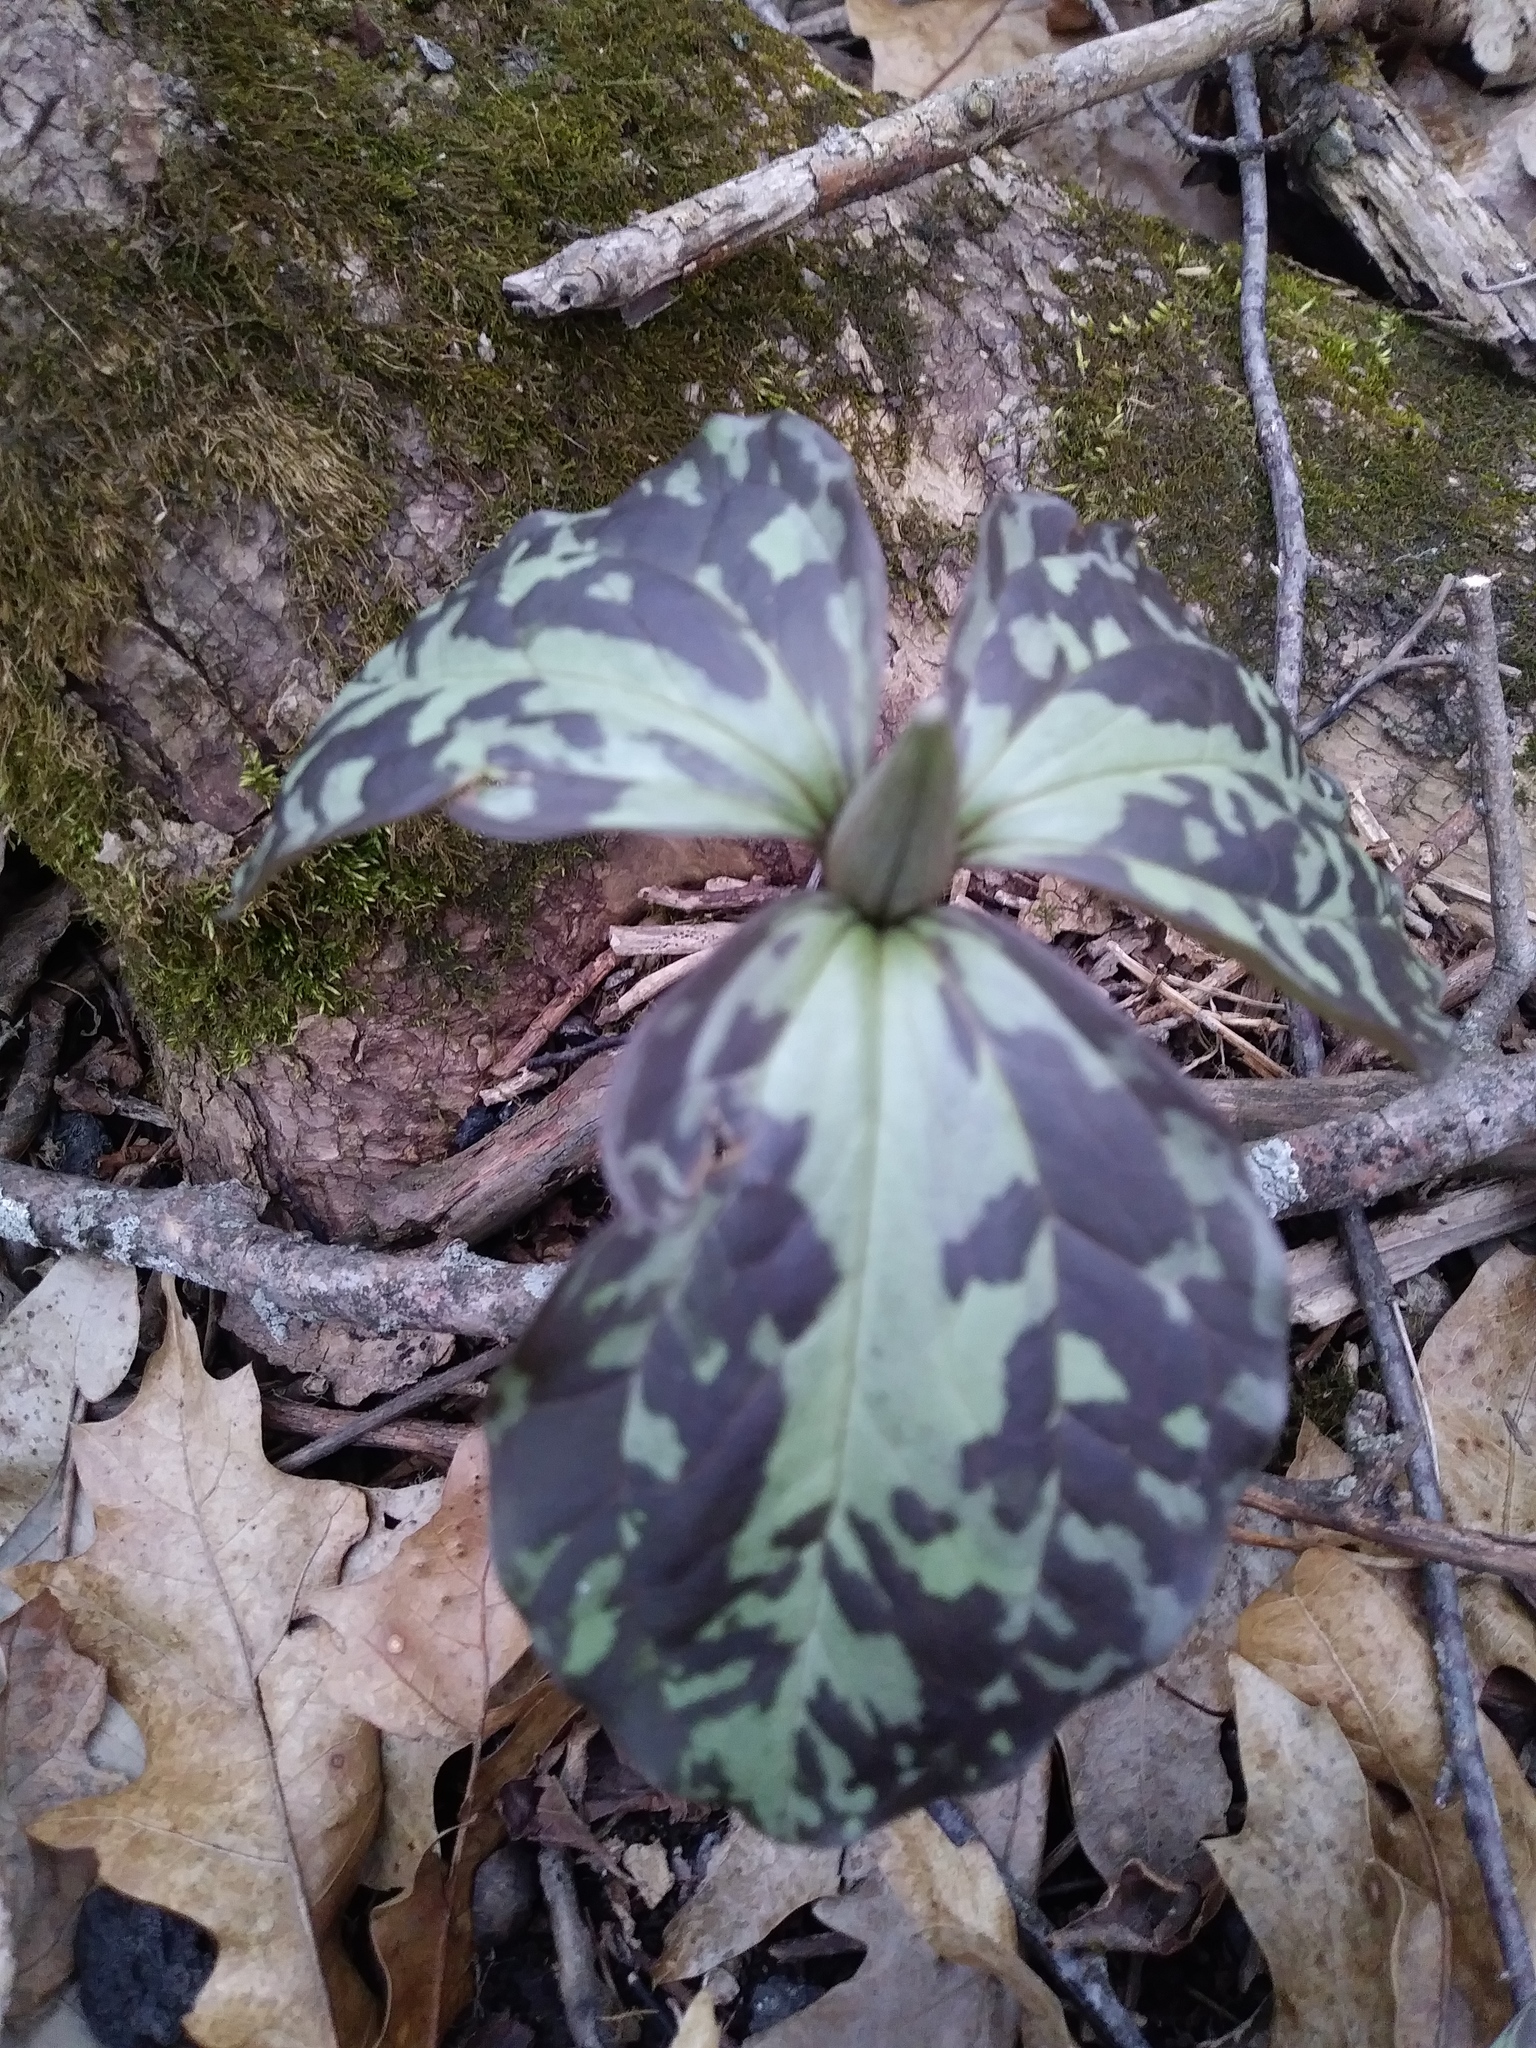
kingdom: Plantae
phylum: Tracheophyta
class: Liliopsida
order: Liliales
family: Melanthiaceae
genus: Trillium
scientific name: Trillium recurvatum
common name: Bloody butcher
